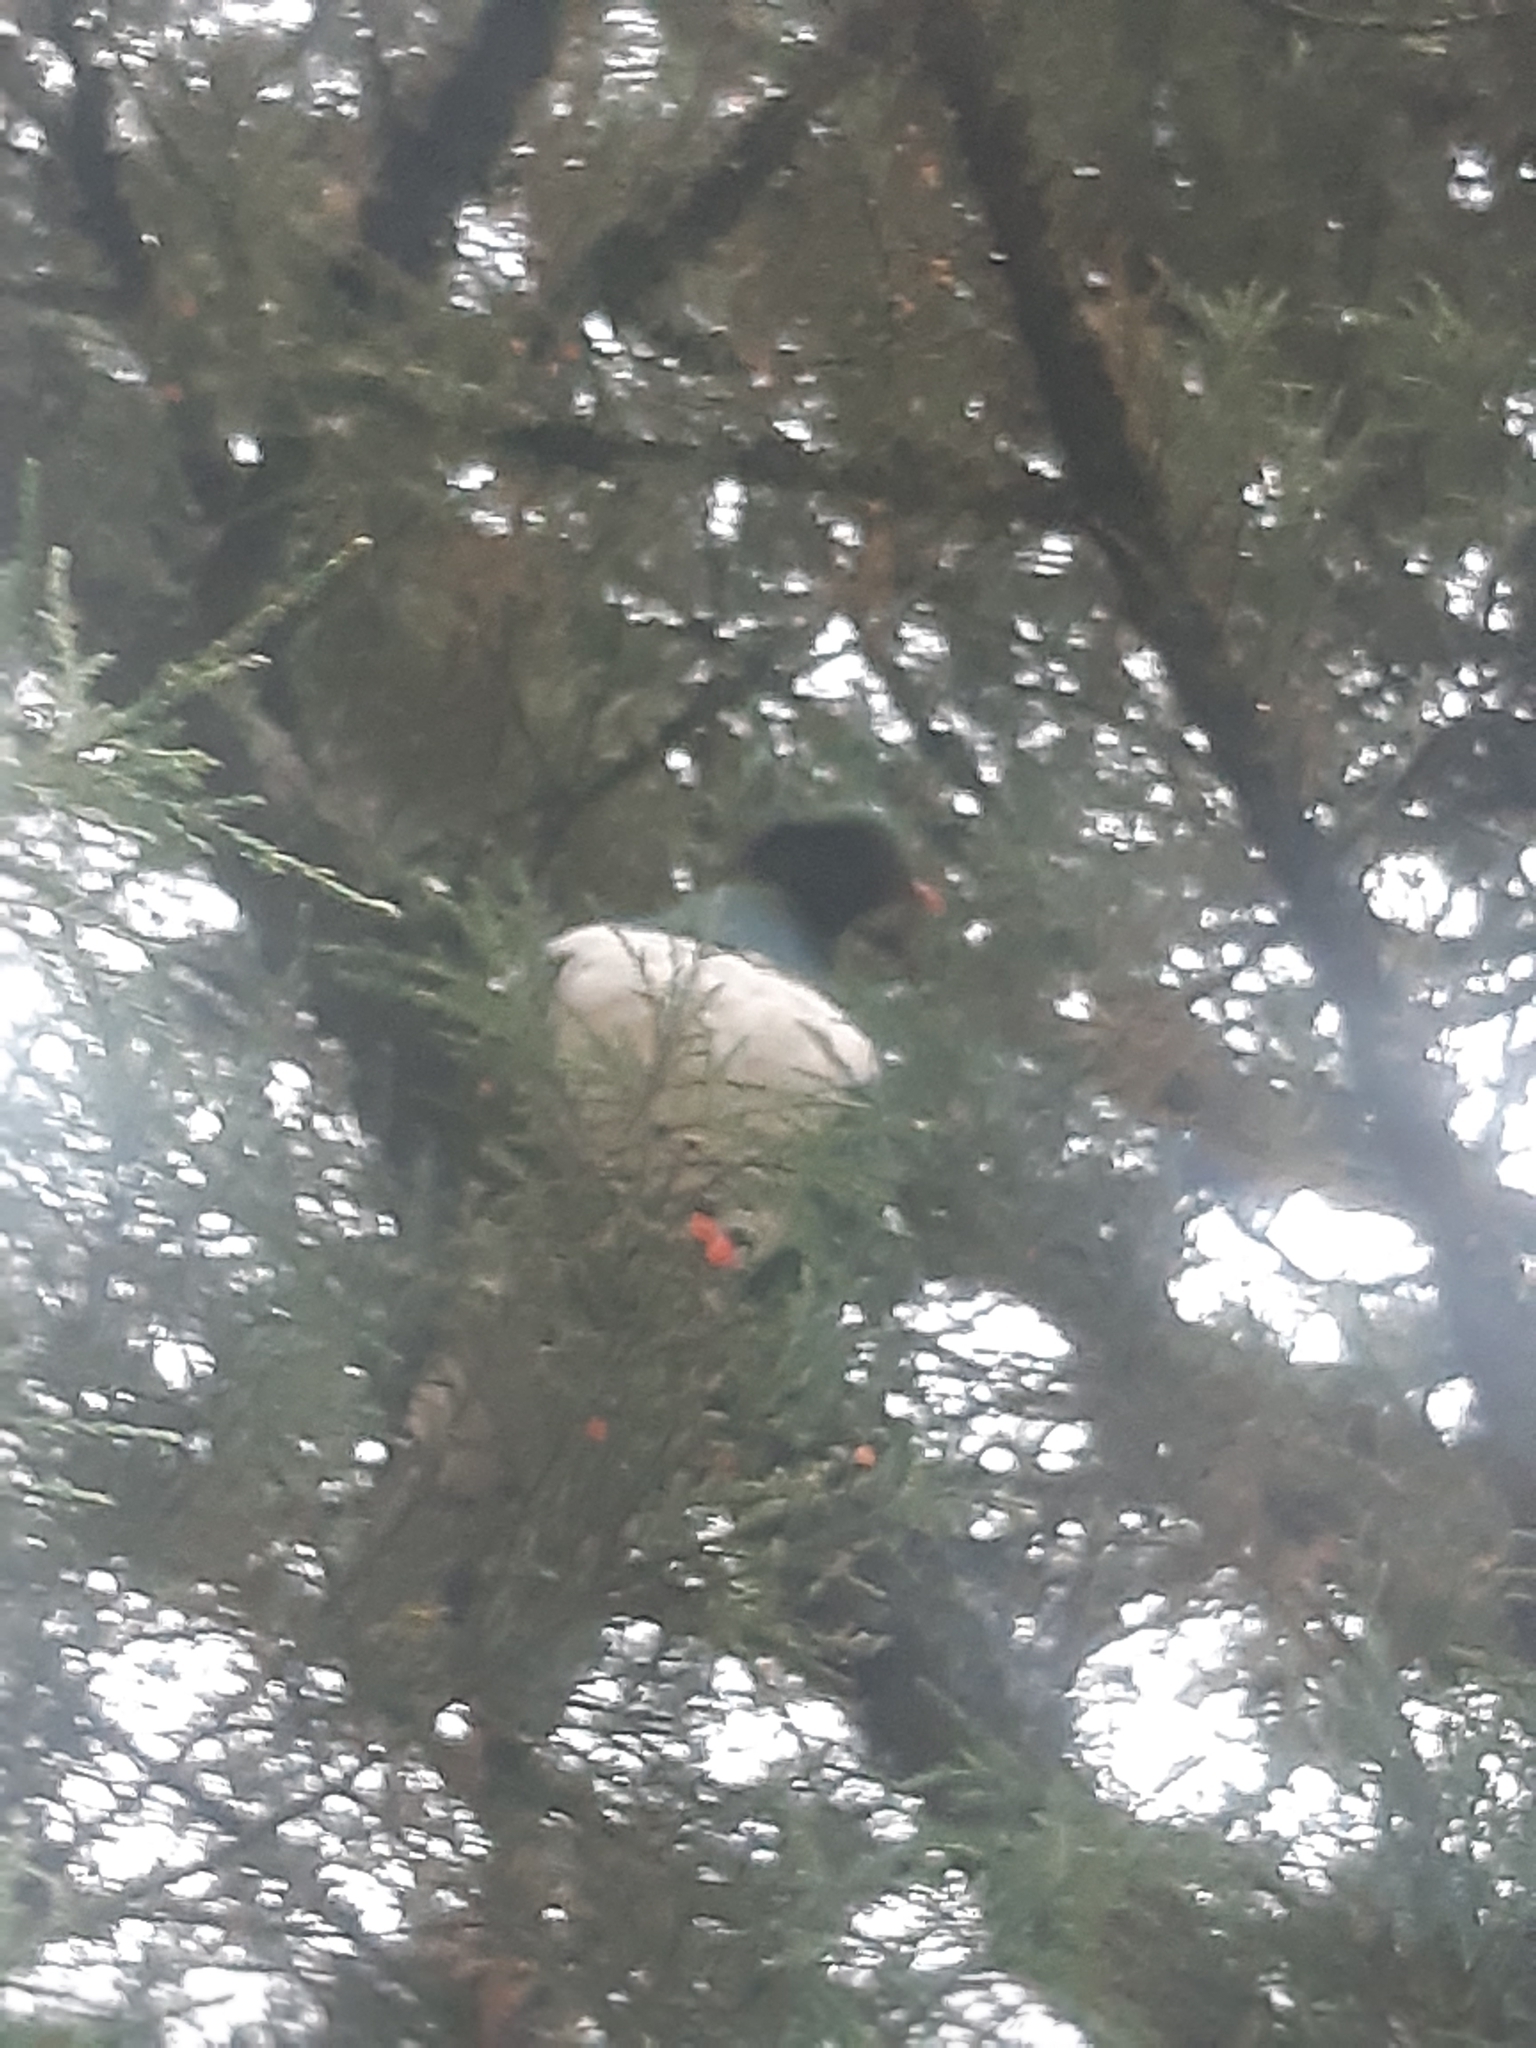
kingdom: Animalia
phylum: Chordata
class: Aves
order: Columbiformes
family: Columbidae
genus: Hemiphaga
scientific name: Hemiphaga novaeseelandiae
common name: New zealand pigeon
